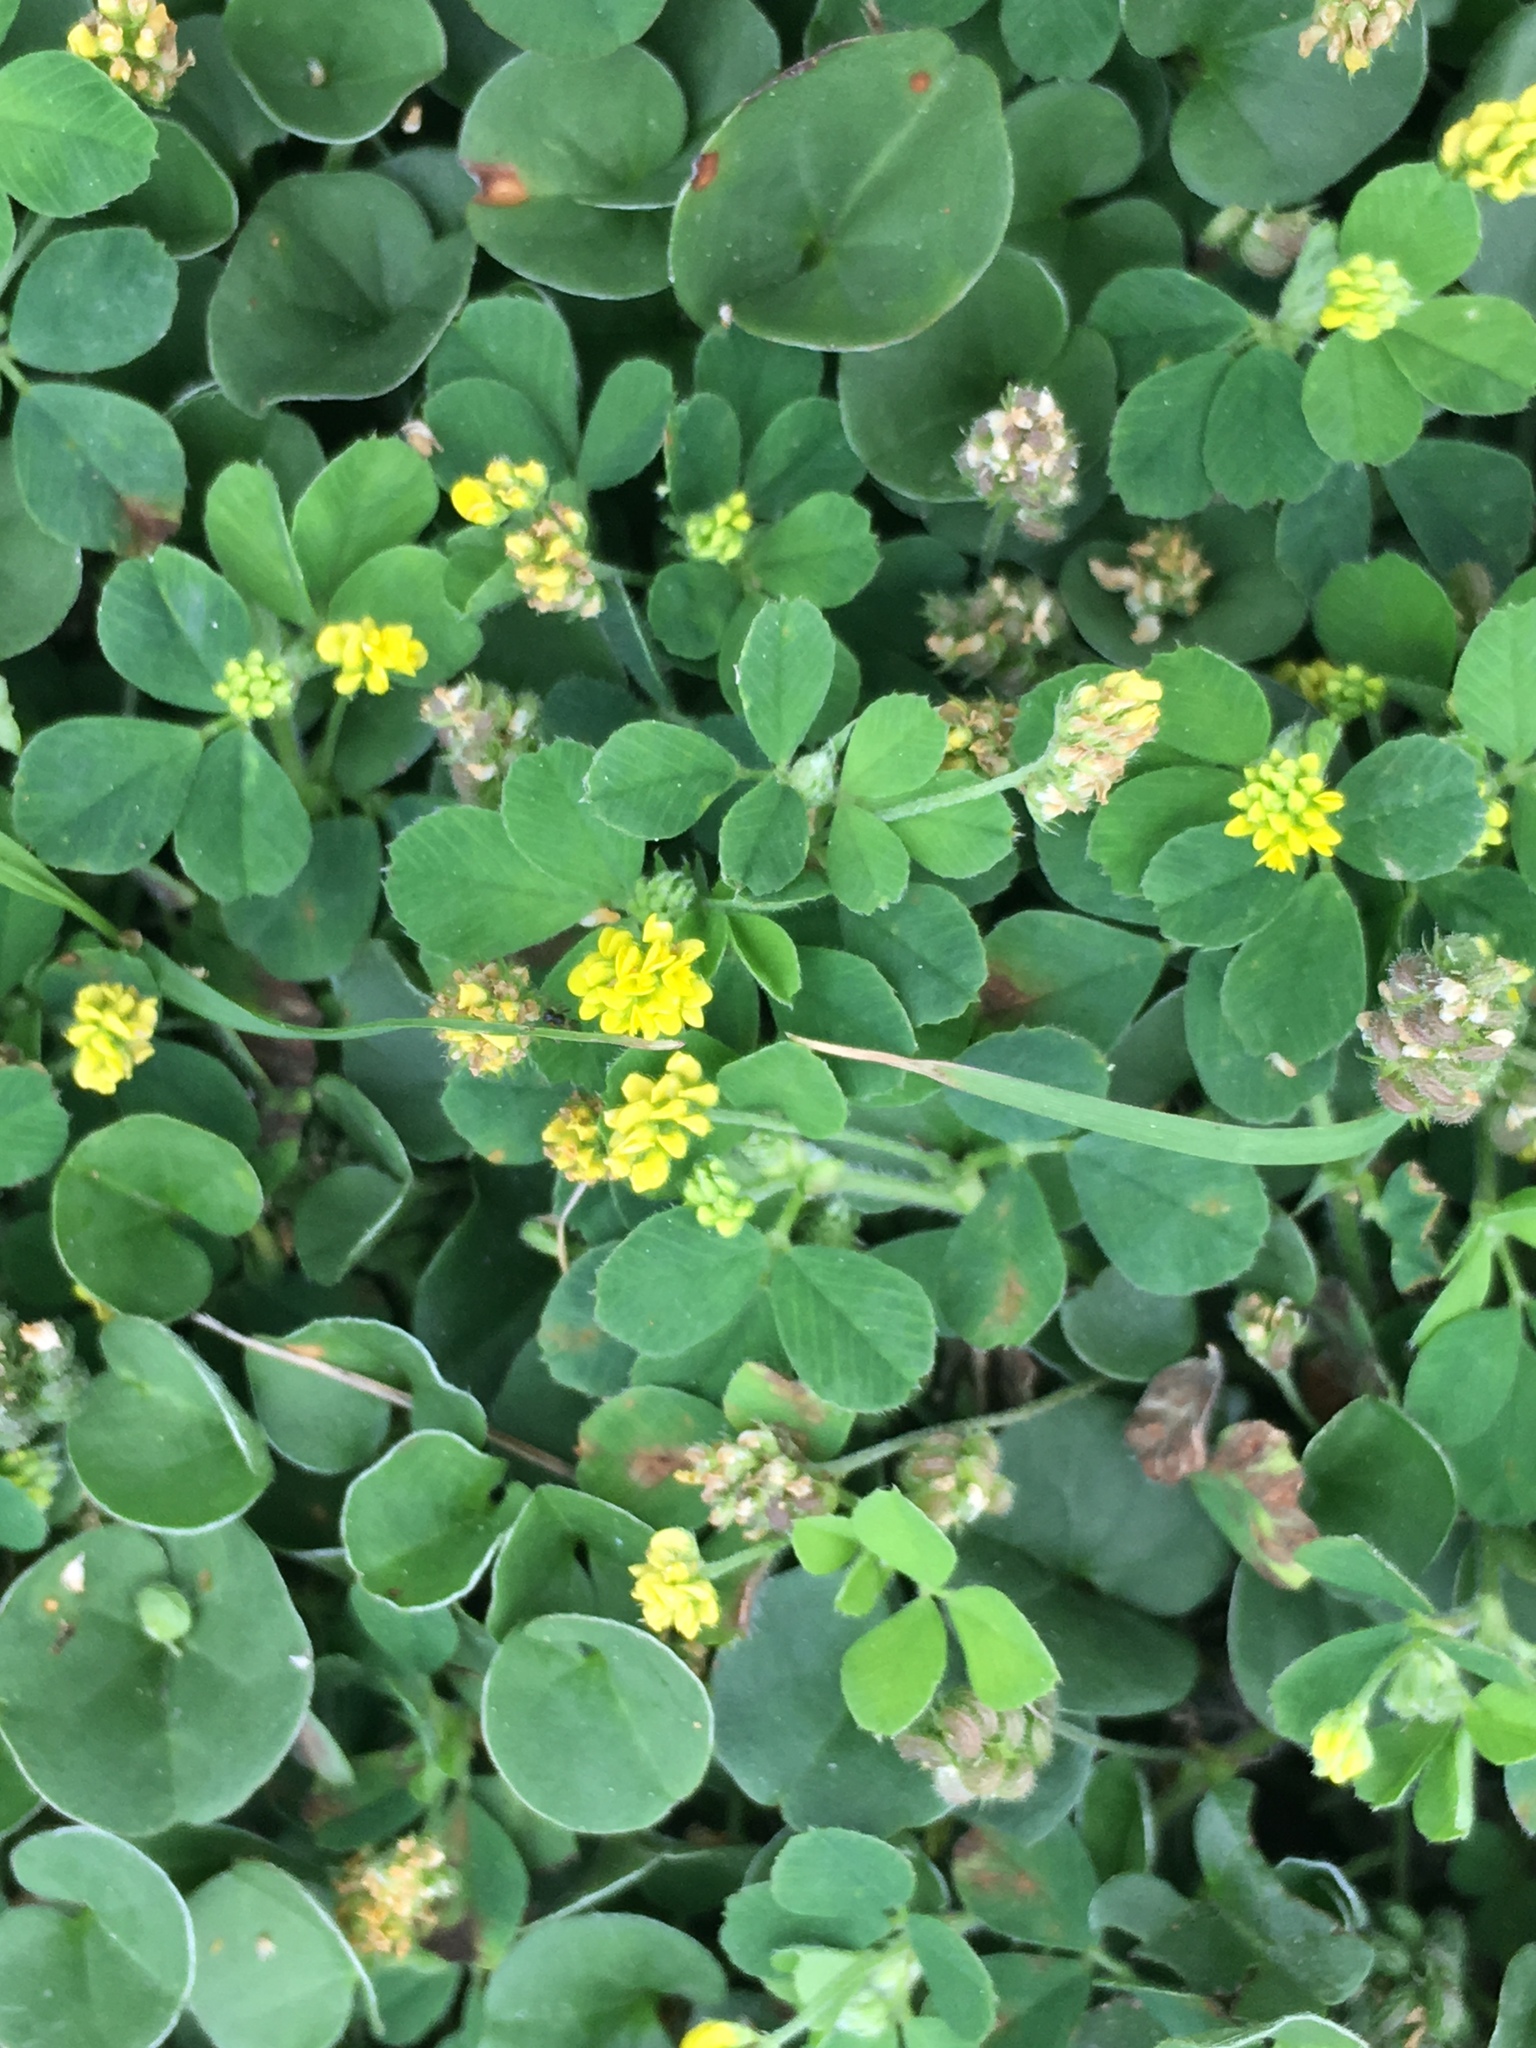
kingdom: Plantae
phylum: Tracheophyta
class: Magnoliopsida
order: Fabales
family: Fabaceae
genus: Medicago
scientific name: Medicago lupulina
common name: Black medick
